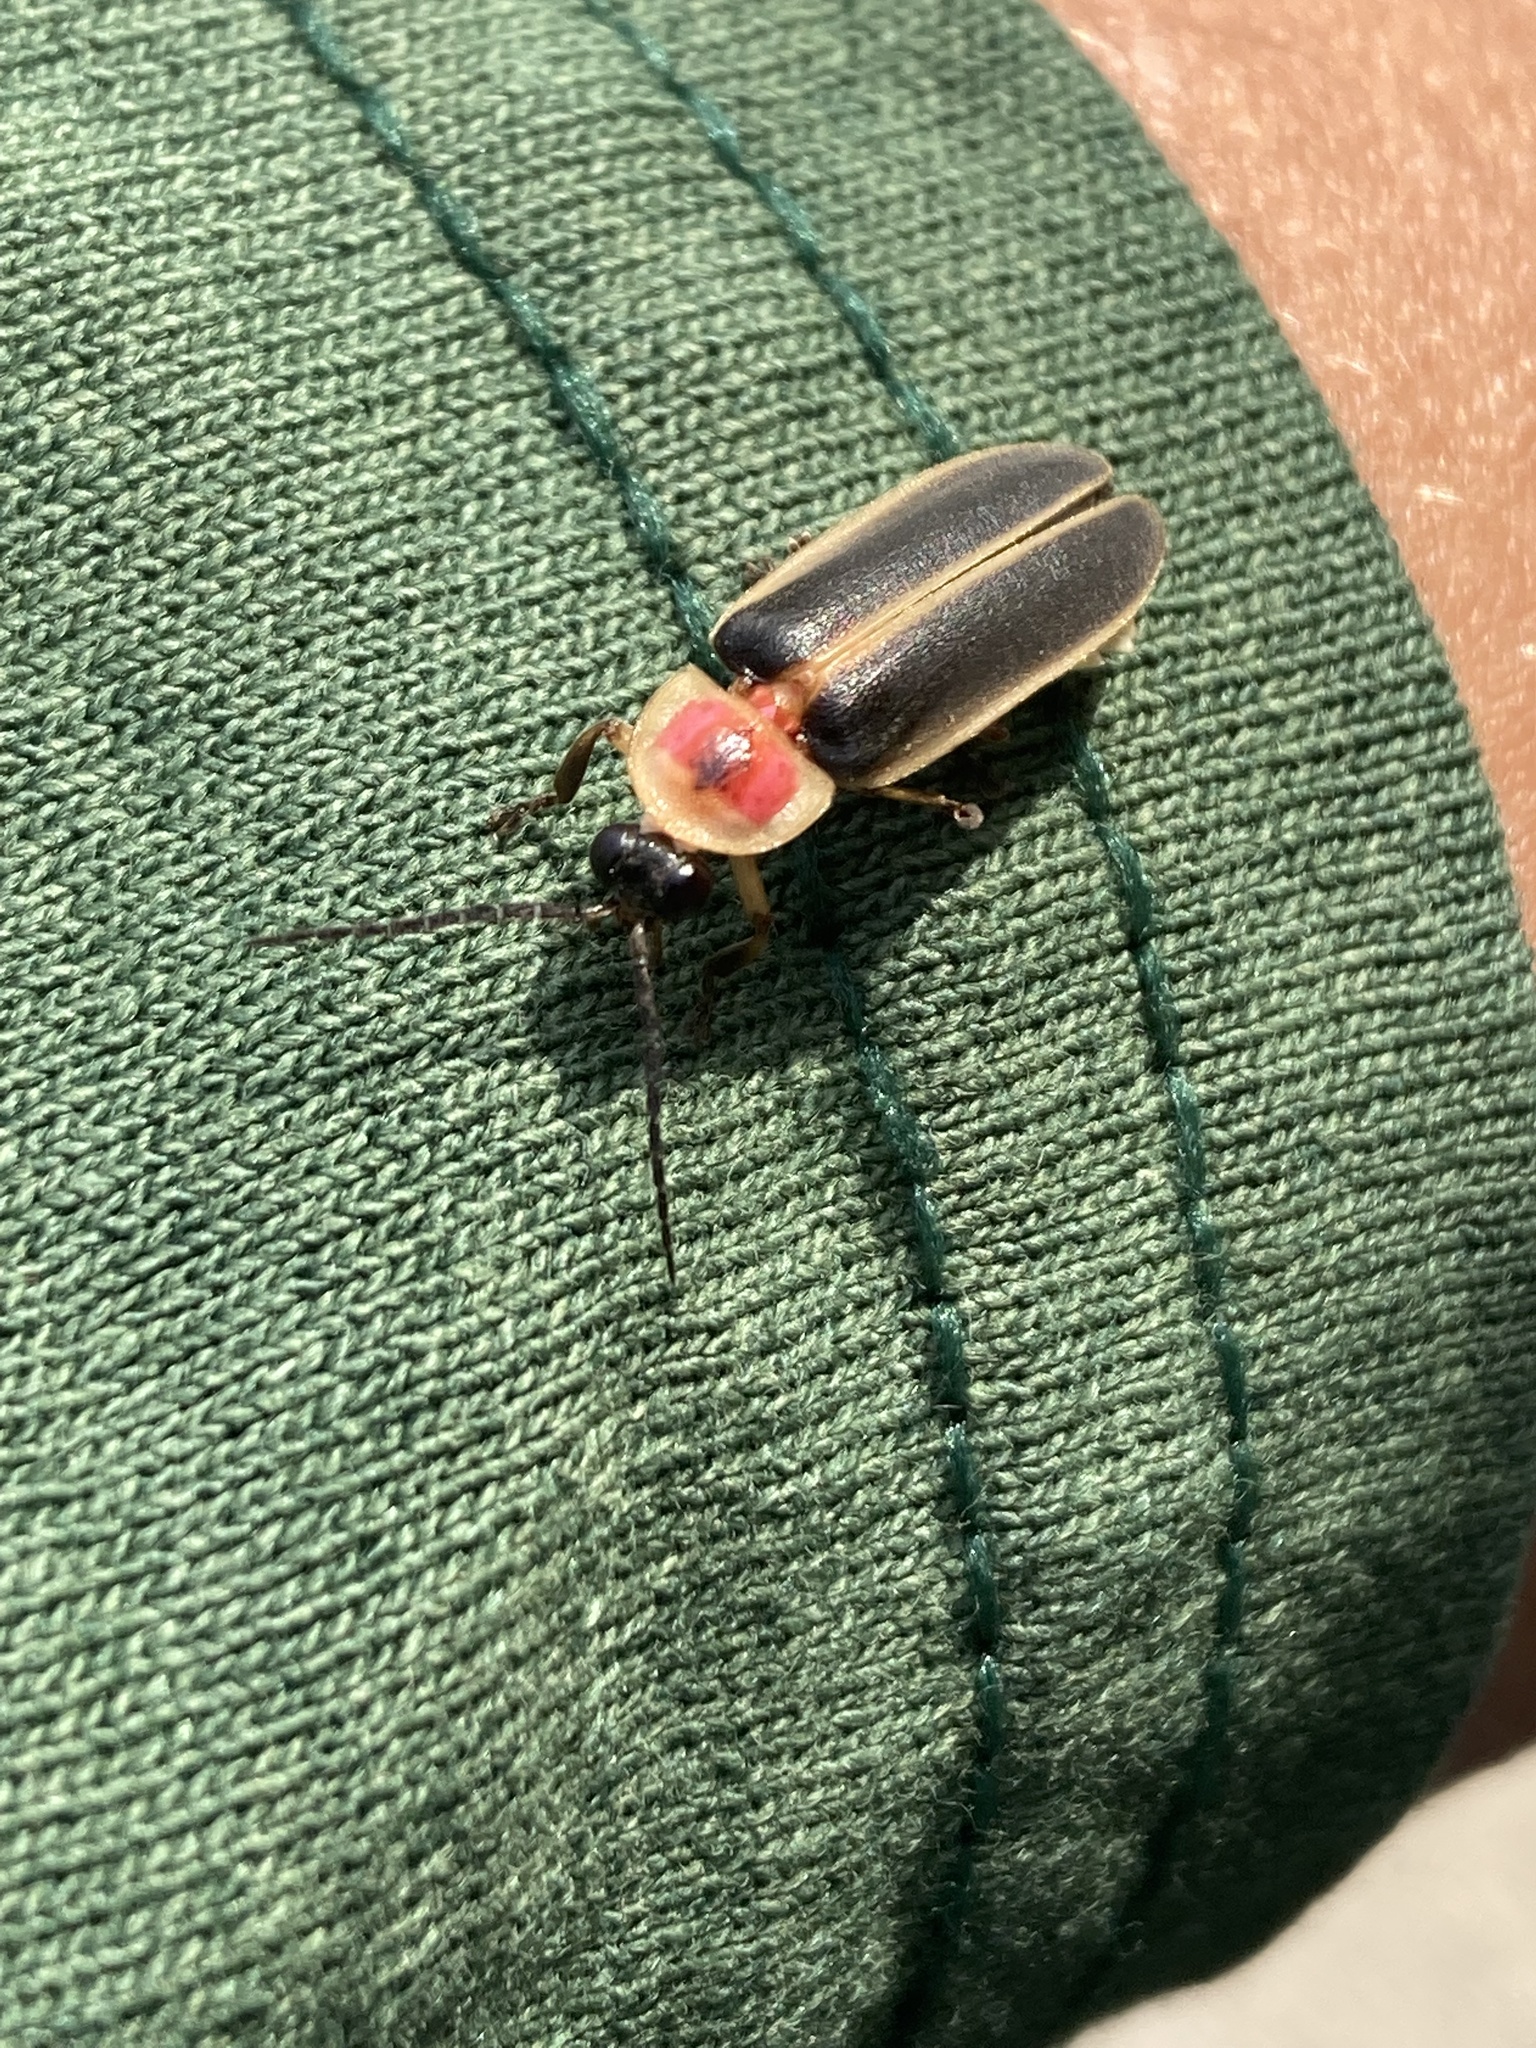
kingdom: Animalia
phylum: Arthropoda
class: Insecta
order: Coleoptera
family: Lampyridae
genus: Photinus
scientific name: Photinus pyralis
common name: Big dipper firefly
